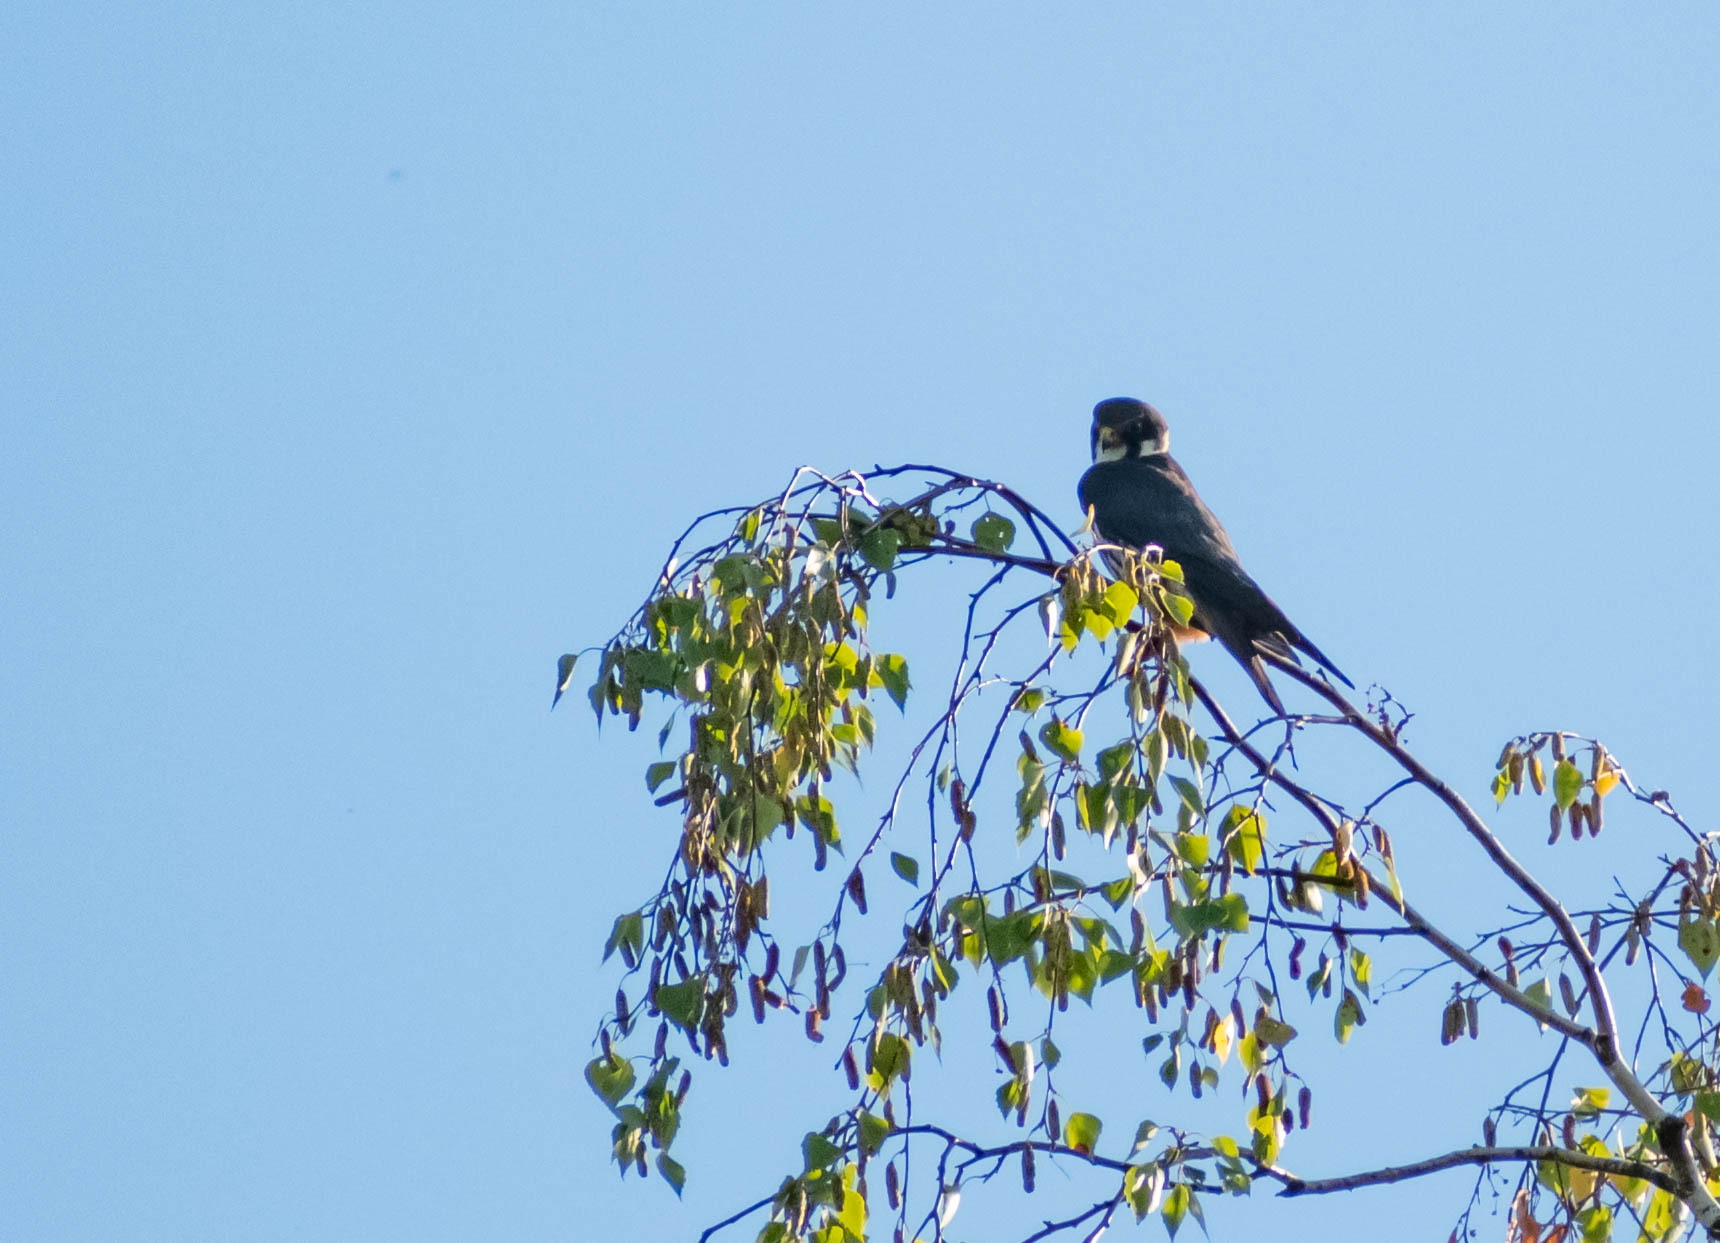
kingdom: Animalia
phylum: Chordata
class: Aves
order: Falconiformes
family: Falconidae
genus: Falco
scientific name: Falco subbuteo
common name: Eurasian hobby
